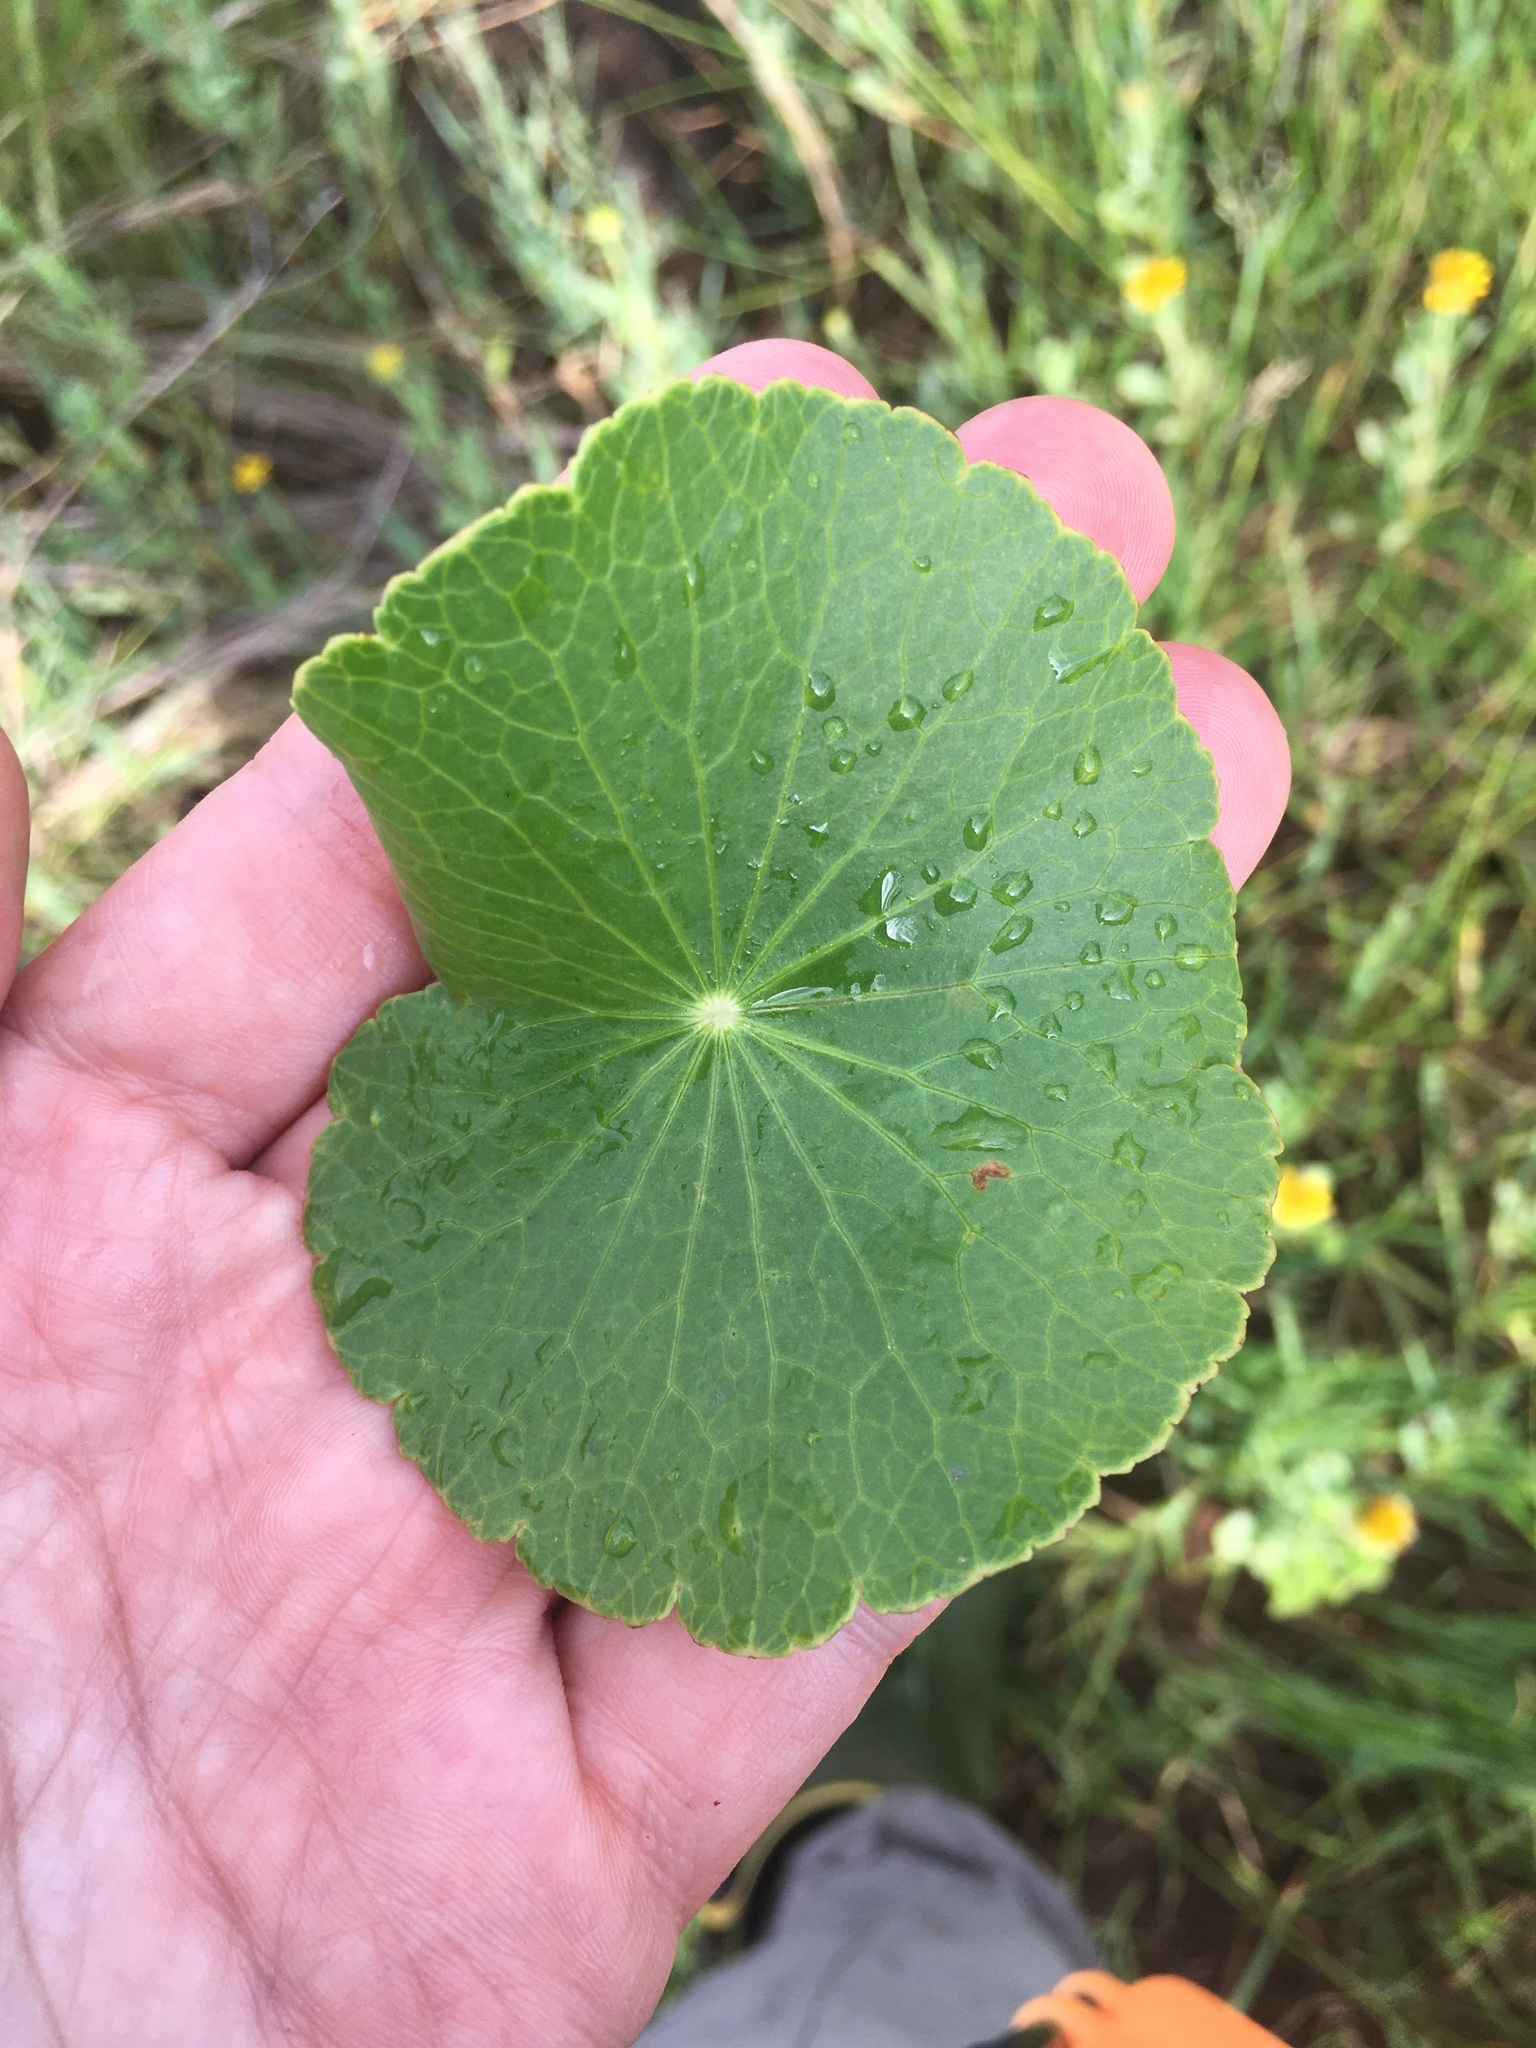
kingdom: Plantae
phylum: Tracheophyta
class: Magnoliopsida
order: Apiales
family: Araliaceae
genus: Hydrocotyle
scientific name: Hydrocotyle bonariensis
